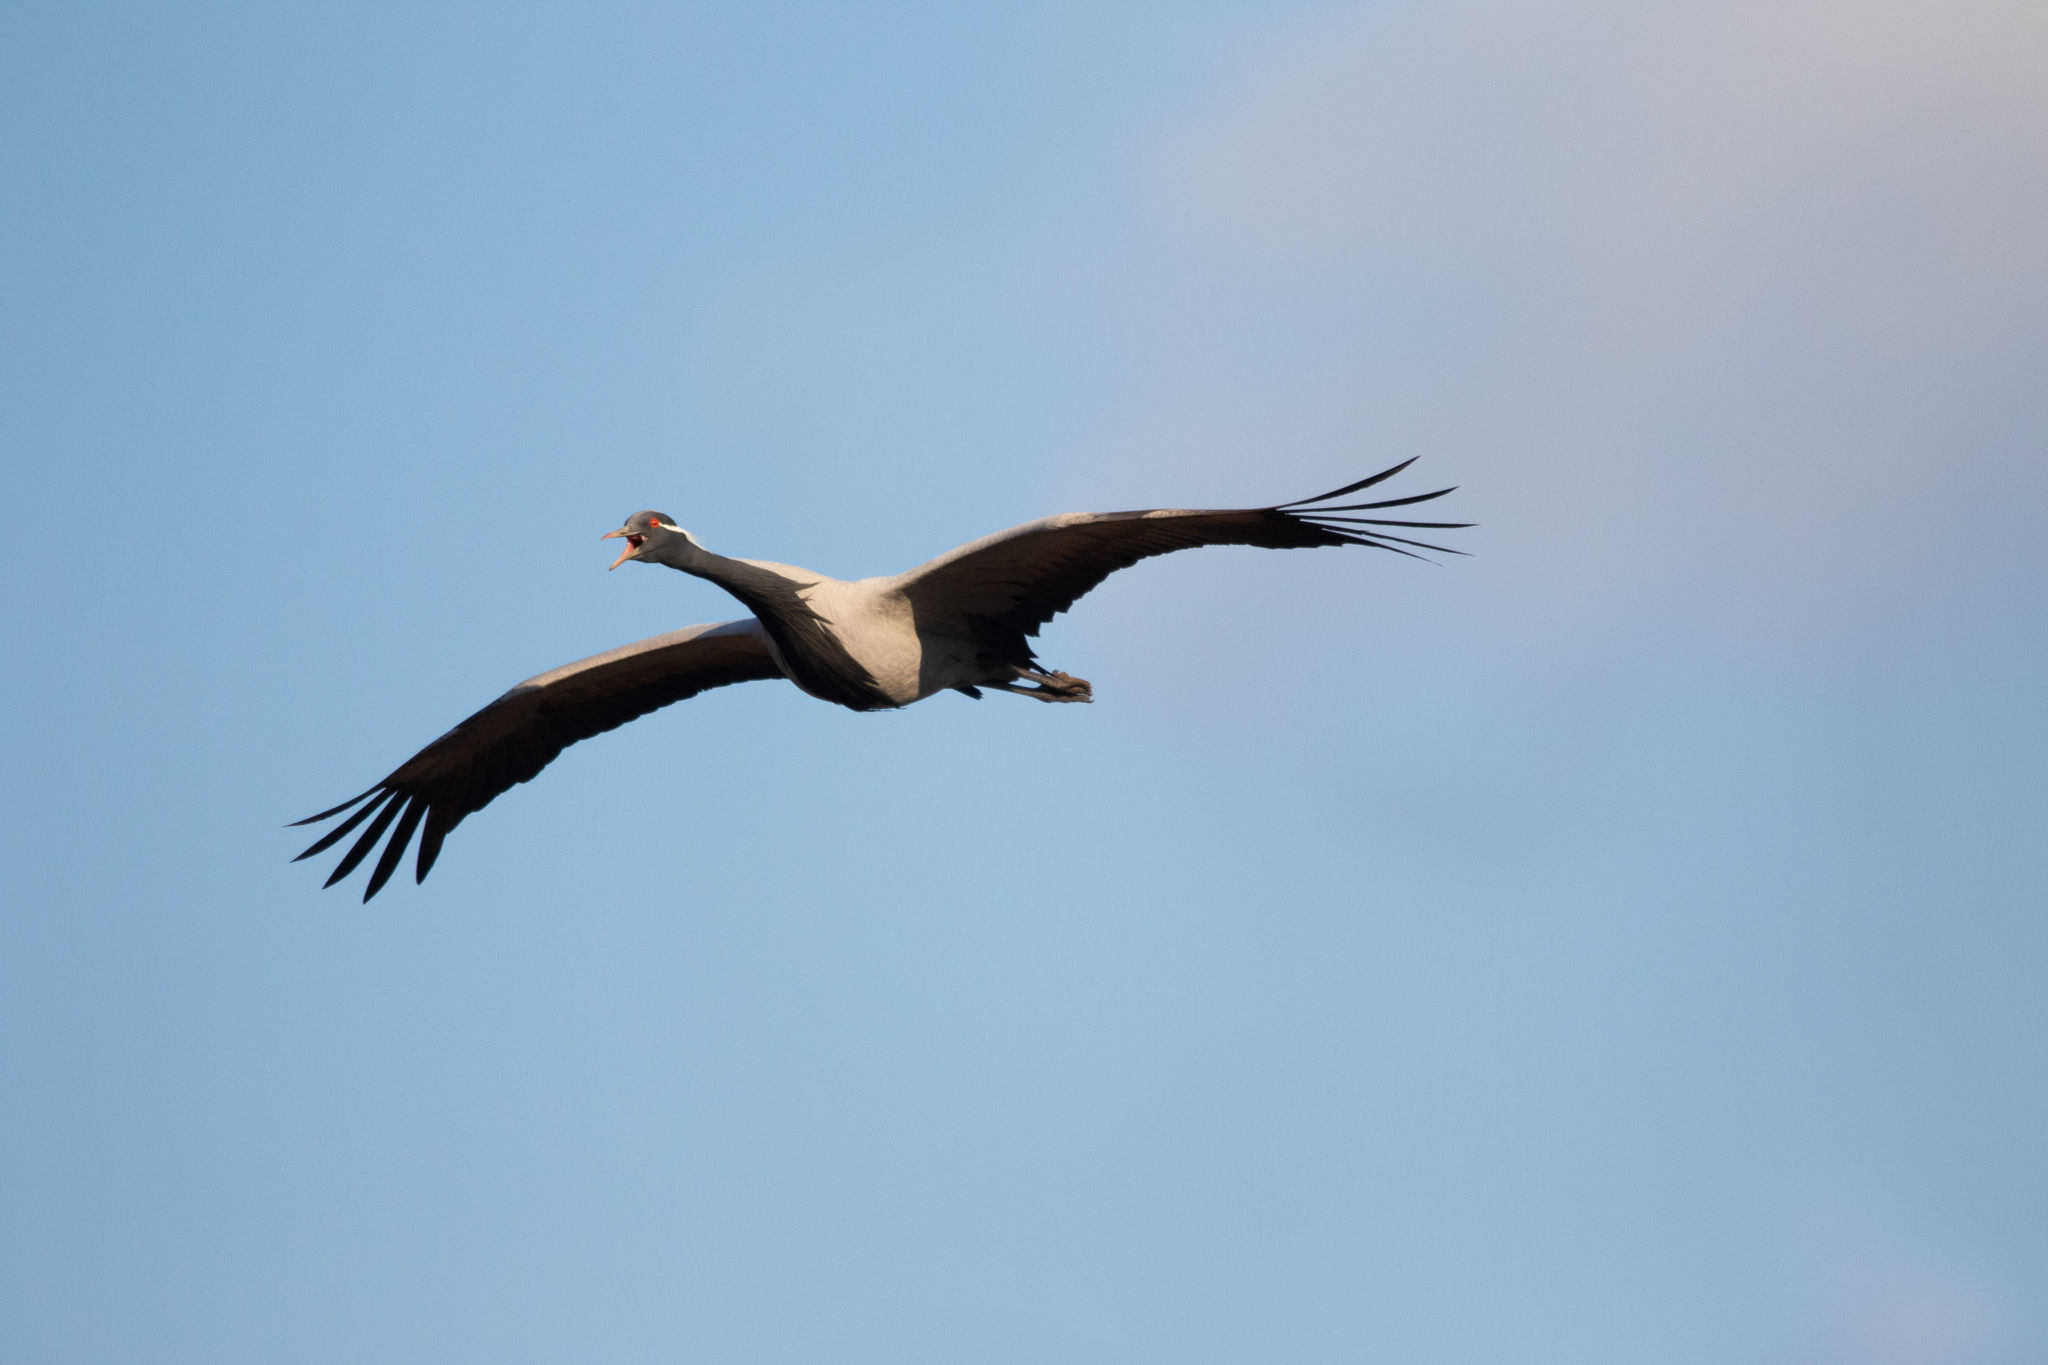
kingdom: Animalia
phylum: Chordata
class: Aves
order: Gruiformes
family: Gruidae
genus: Anthropoides
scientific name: Anthropoides virgo
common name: Demoiselle crane
